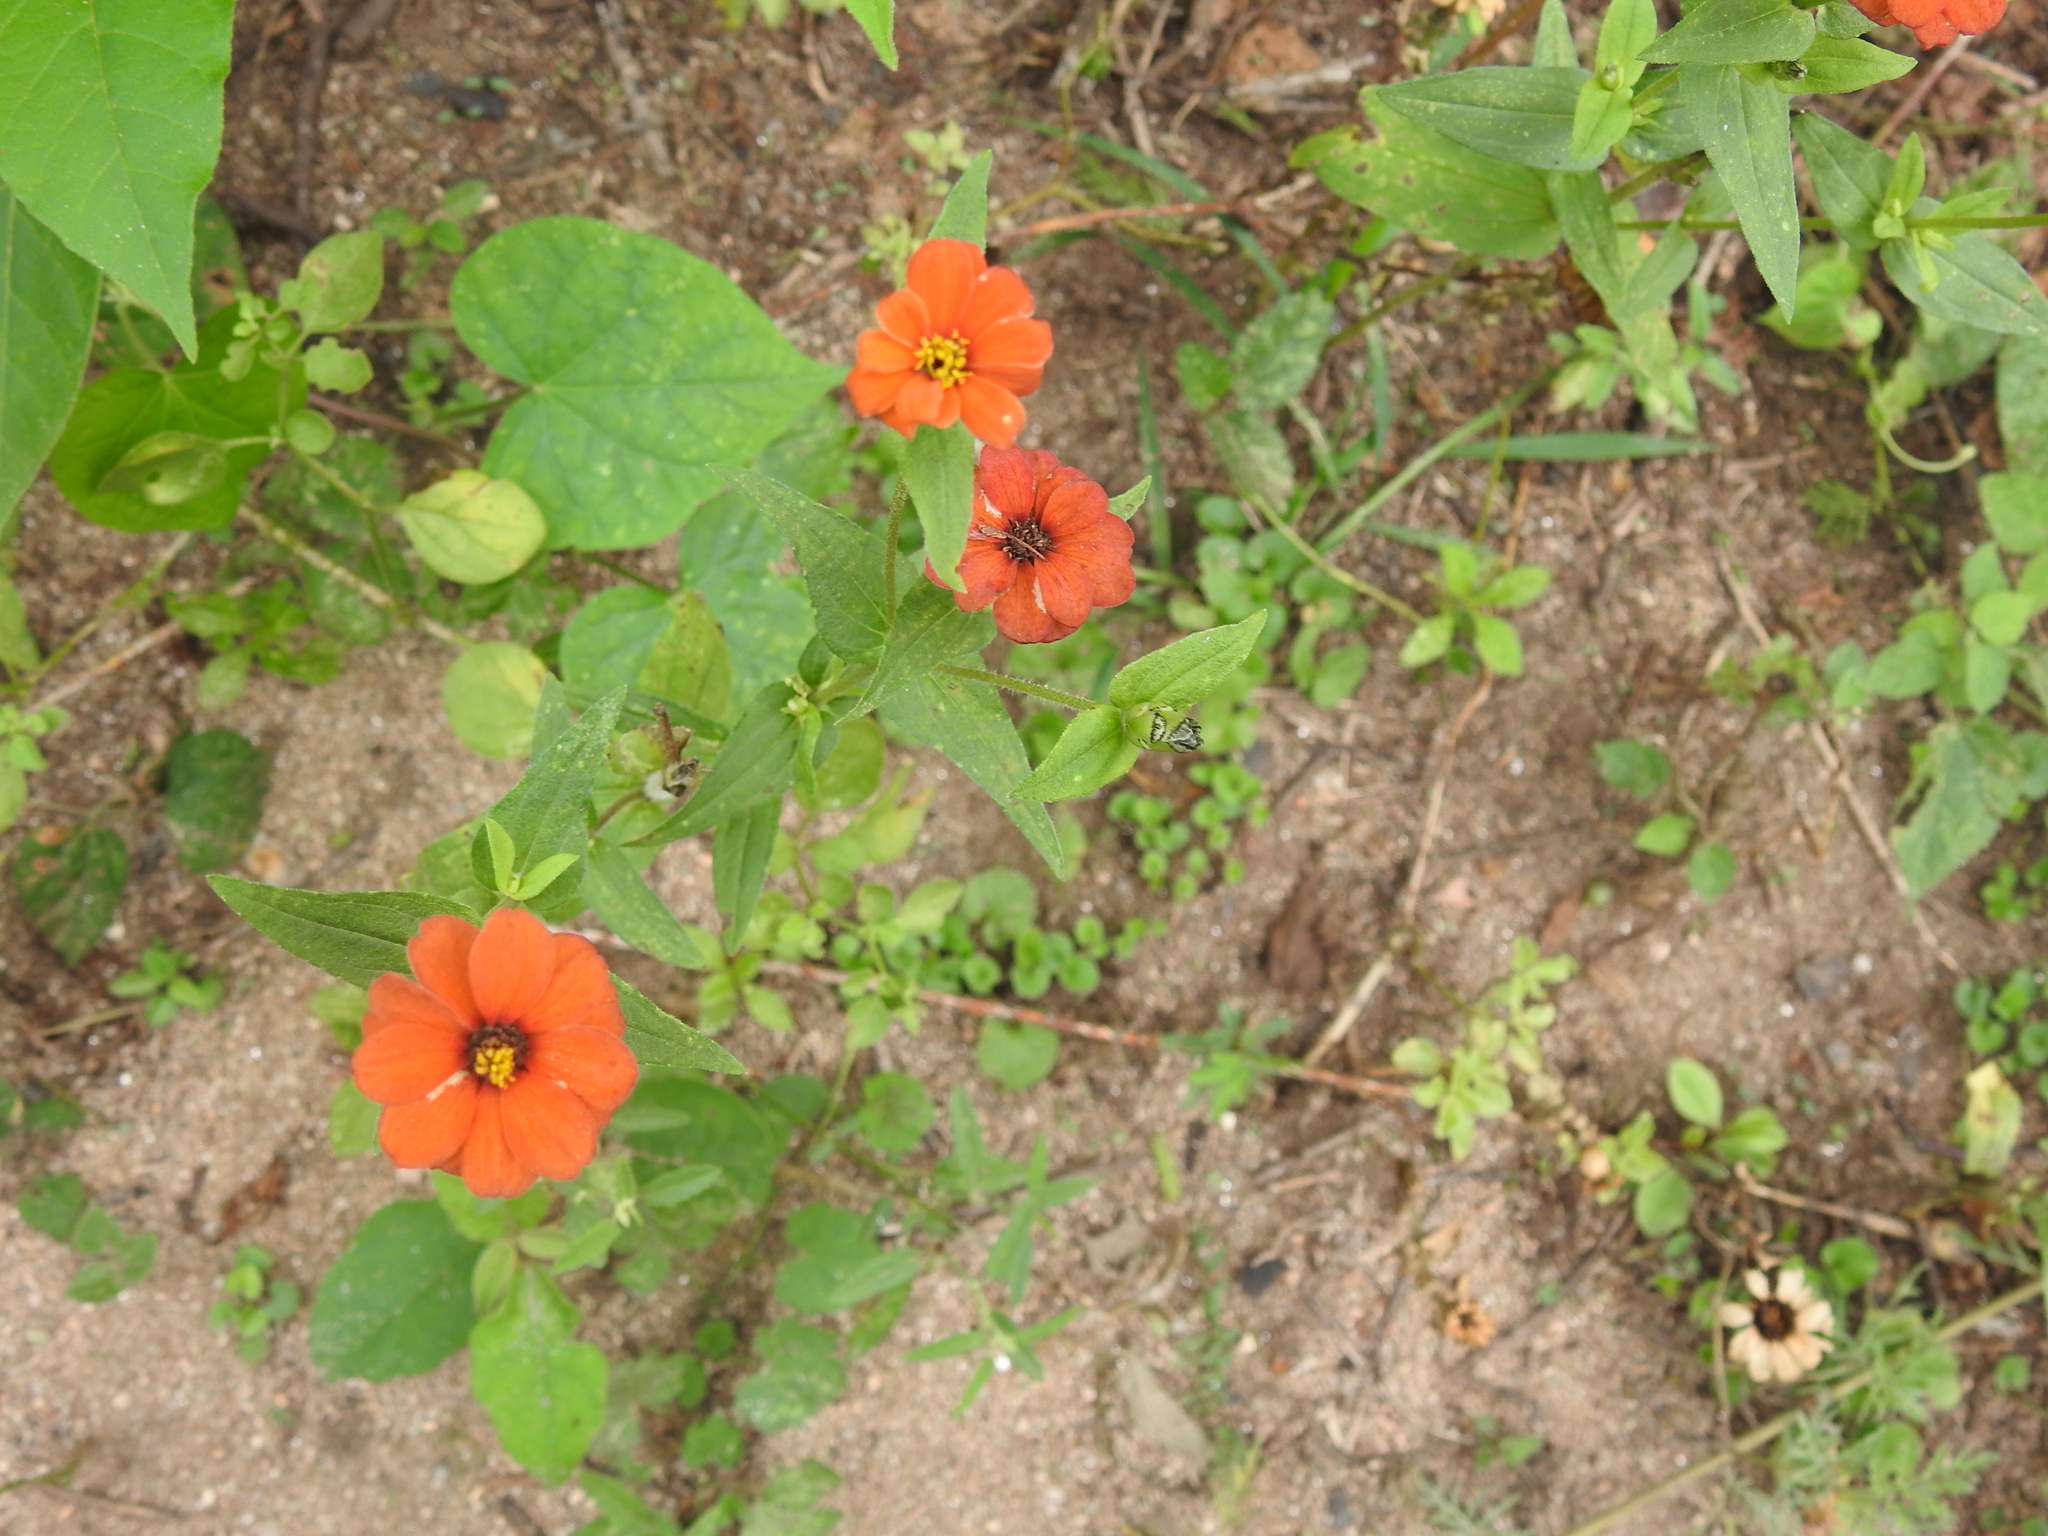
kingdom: Plantae
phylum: Tracheophyta
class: Magnoliopsida
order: Asterales
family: Asteraceae
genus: Zinnia
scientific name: Zinnia peruviana
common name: Peruvian zinnia
